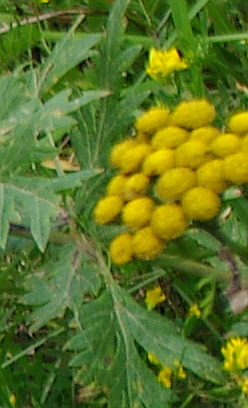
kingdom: Plantae
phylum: Tracheophyta
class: Magnoliopsida
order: Asterales
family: Asteraceae
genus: Tanacetum
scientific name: Tanacetum vulgare
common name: Common tansy
